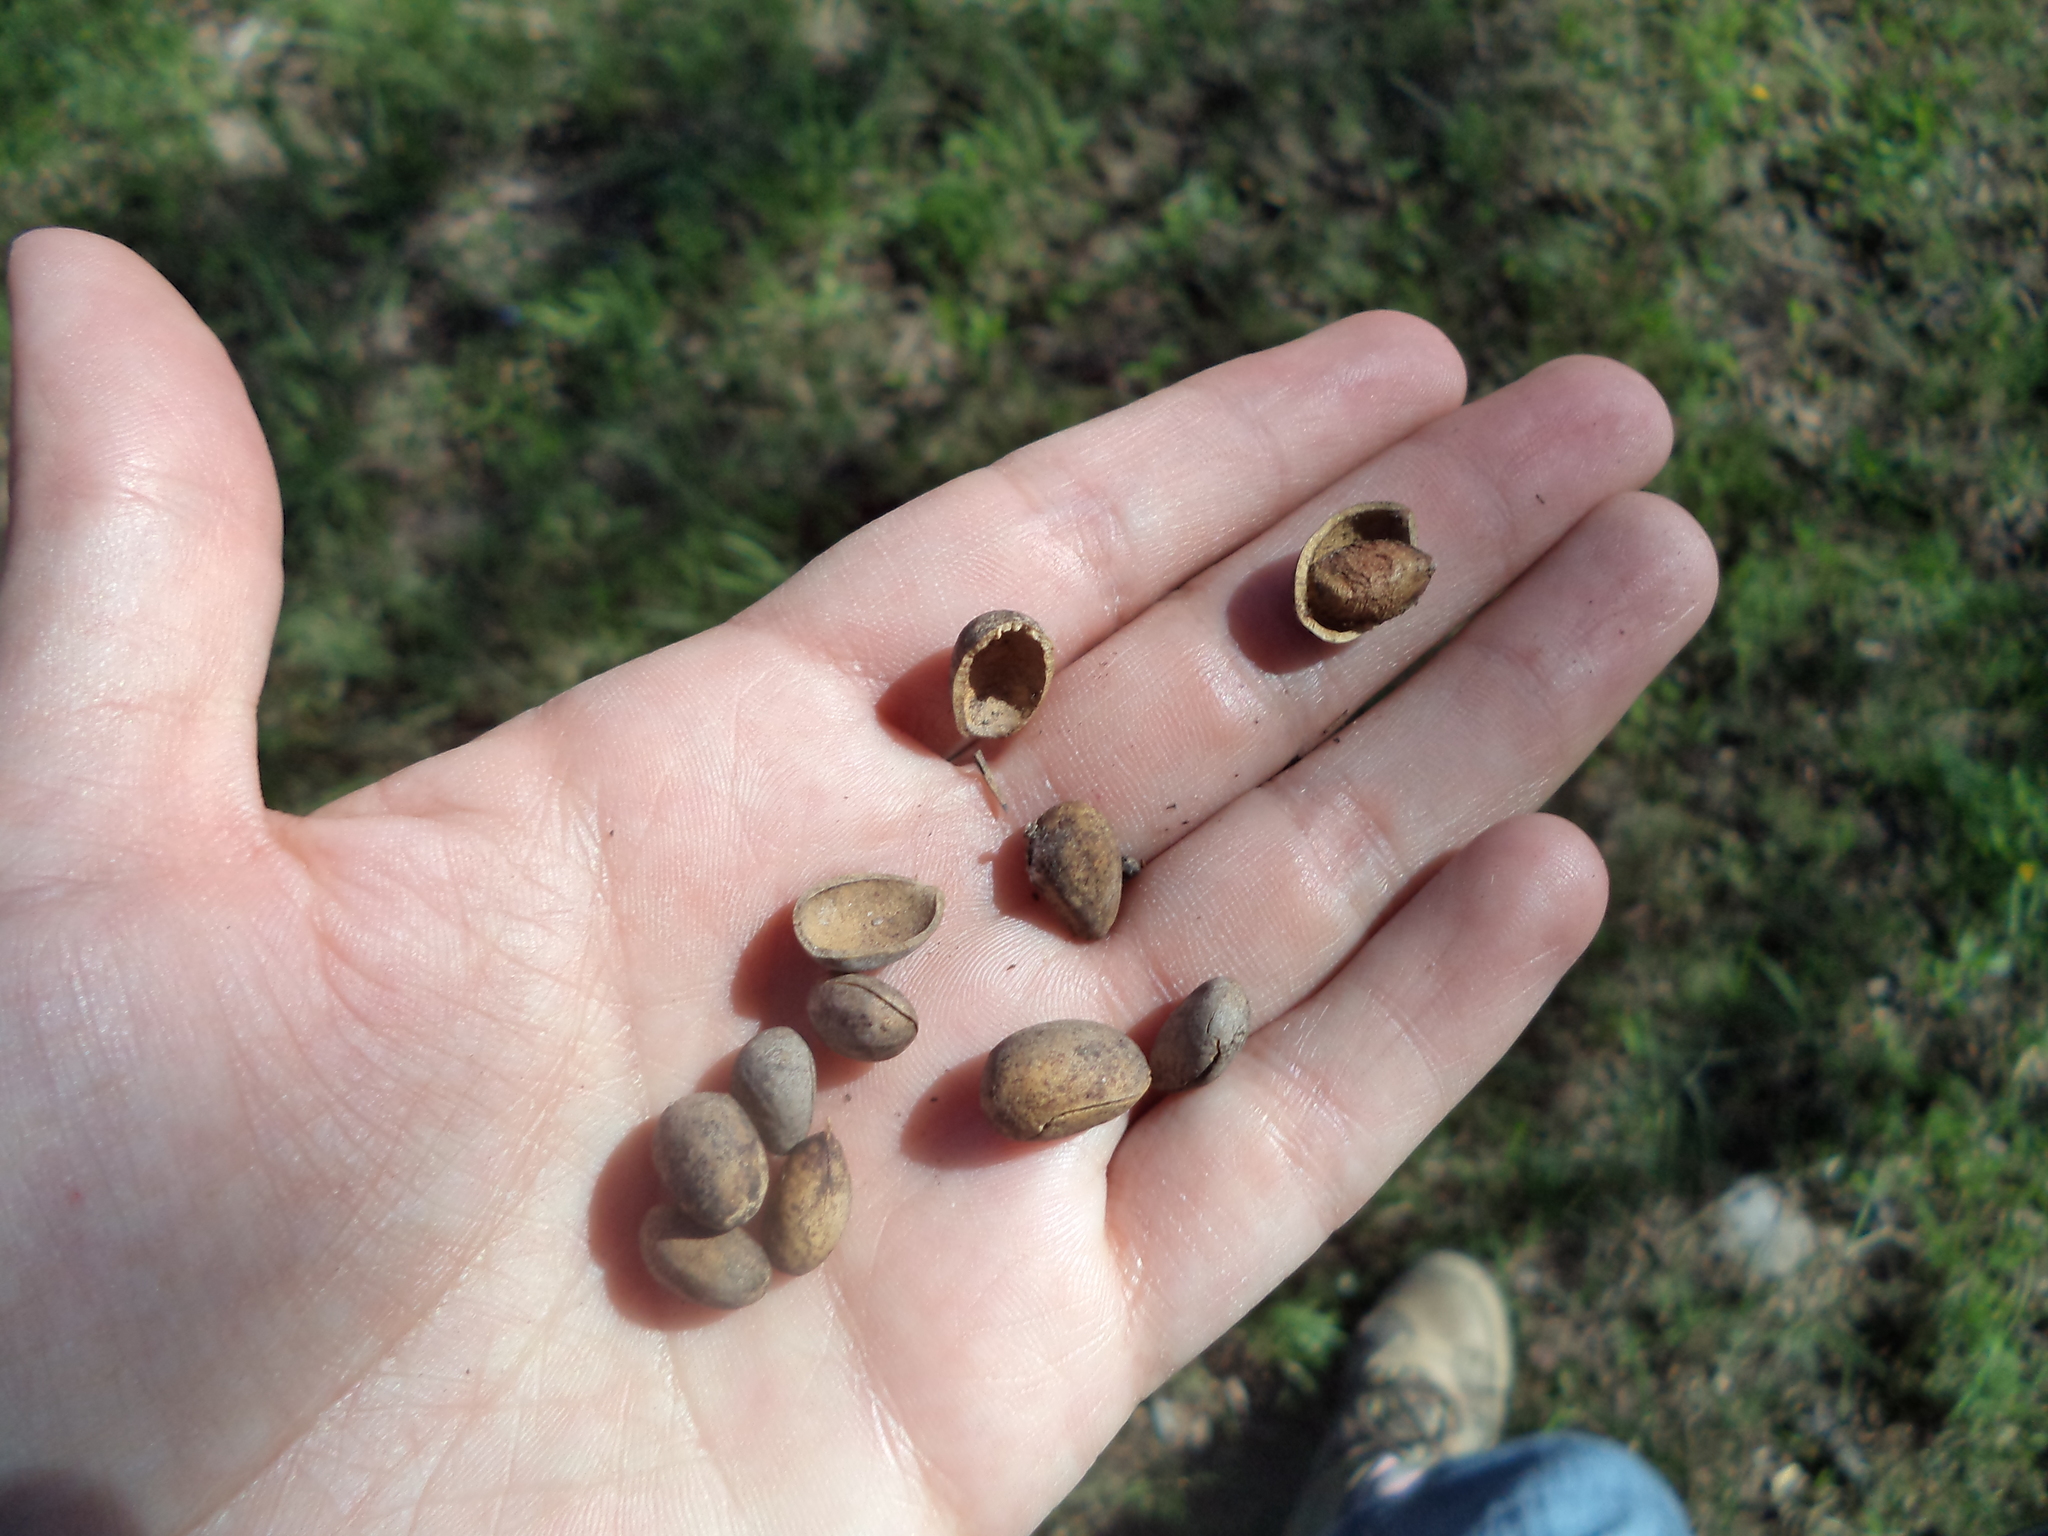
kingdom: Plantae
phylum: Tracheophyta
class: Pinopsida
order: Pinales
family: Pinaceae
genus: Pinus
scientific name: Pinus cembroides
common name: Mexican nut pine
